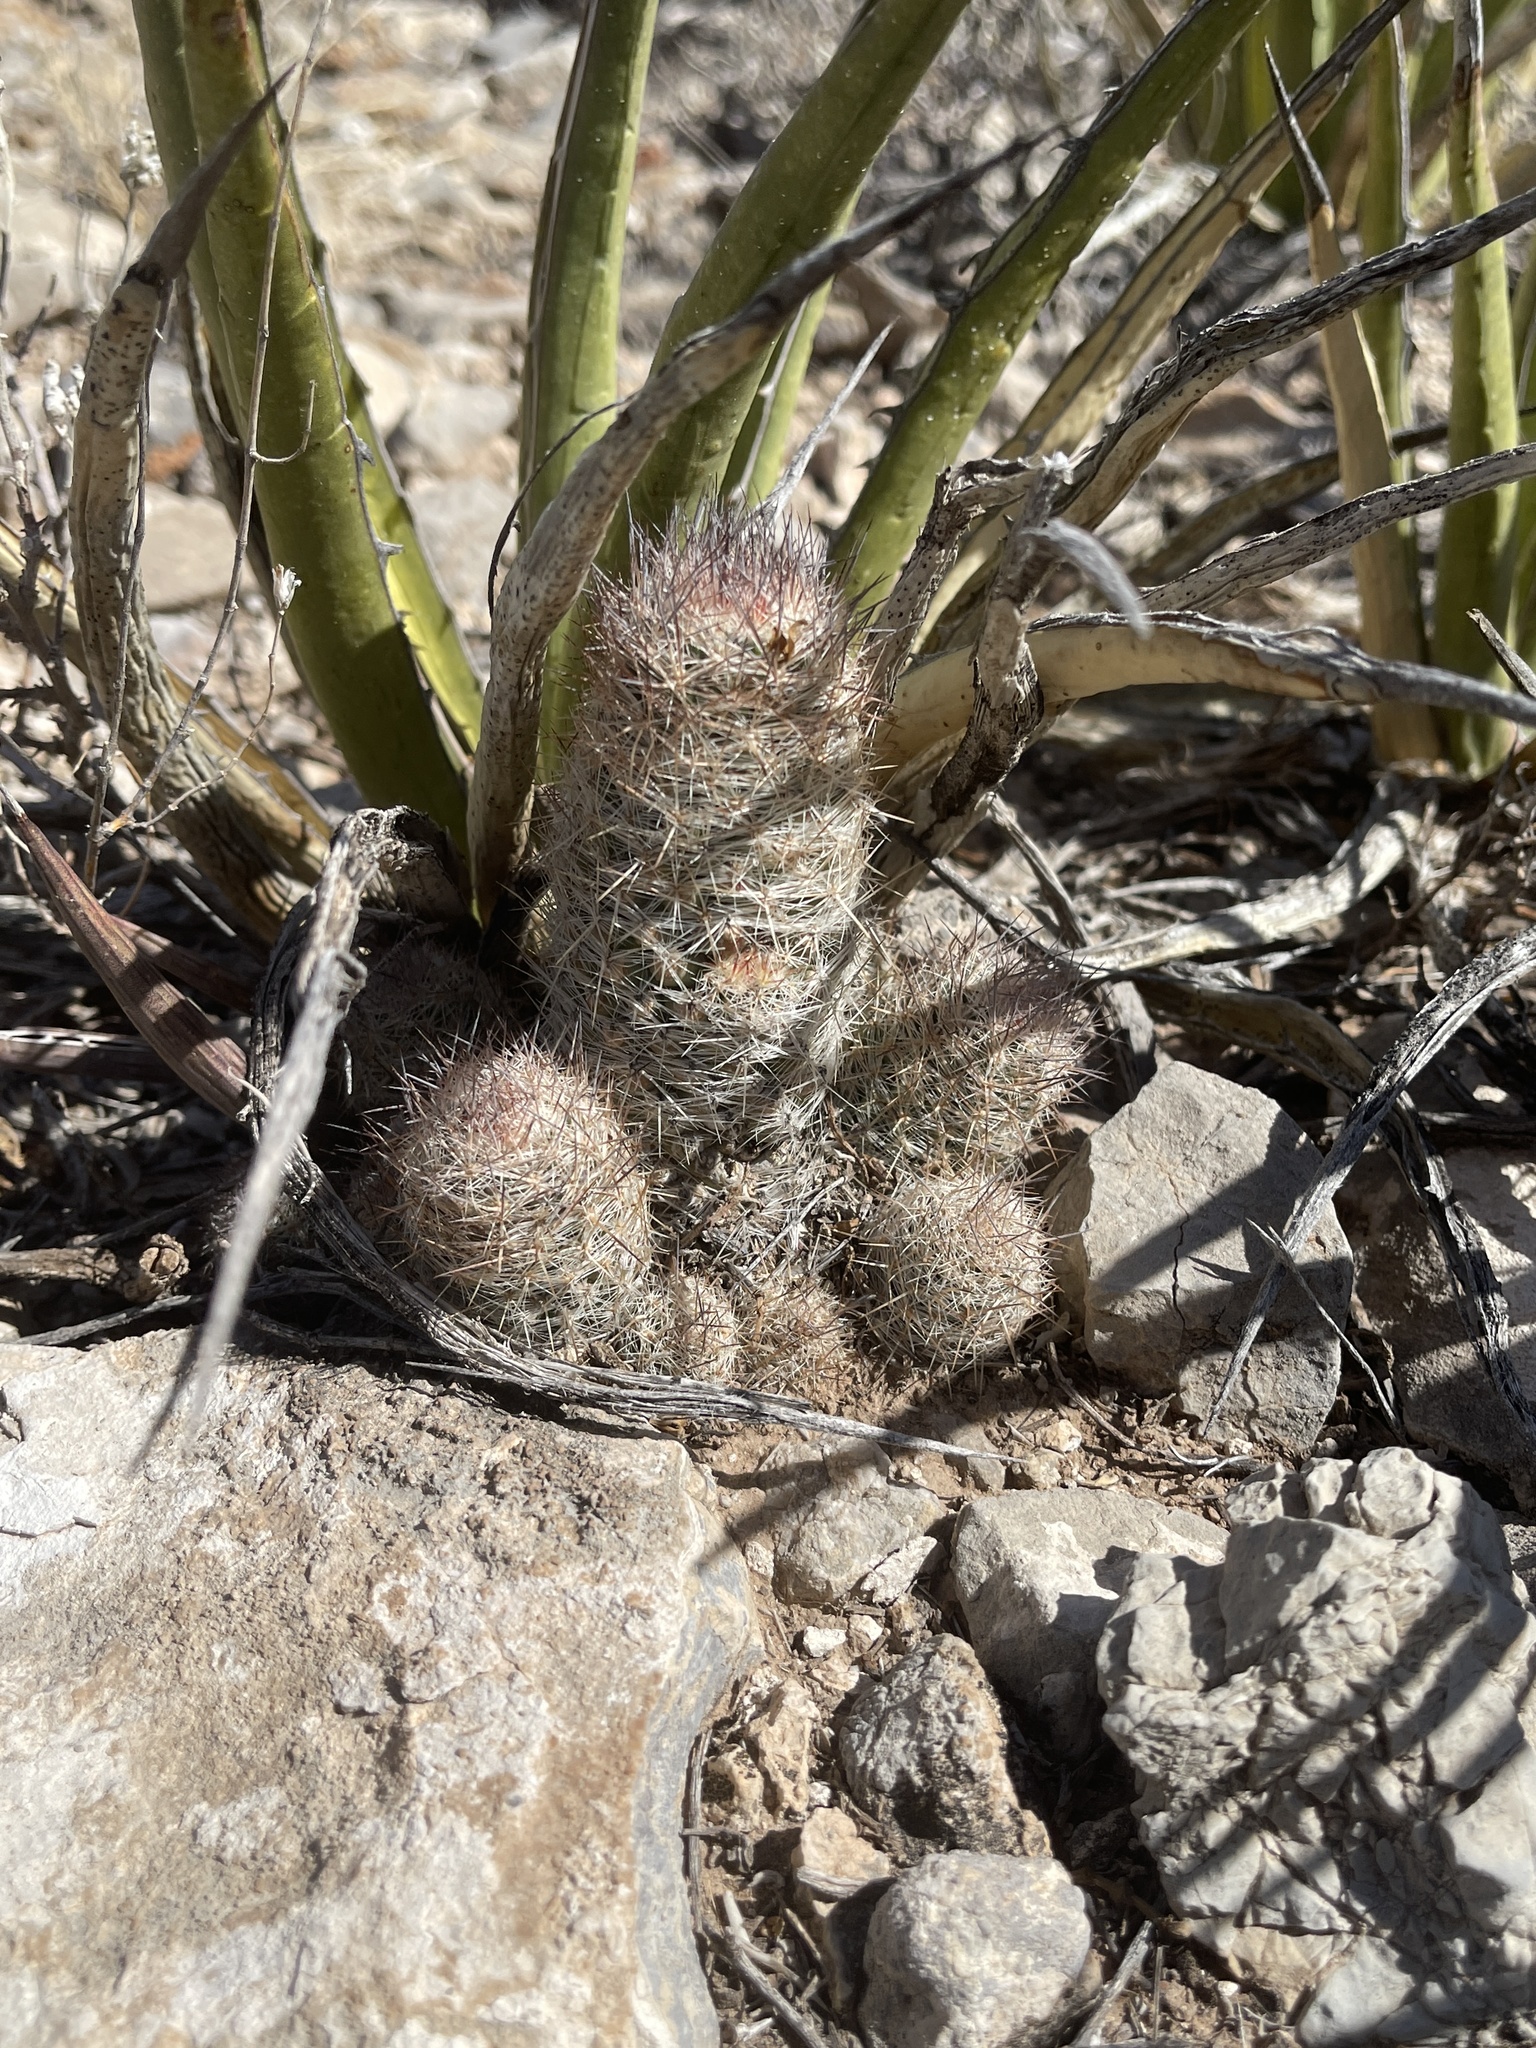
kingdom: Plantae
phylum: Tracheophyta
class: Magnoliopsida
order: Caryophyllales
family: Cactaceae
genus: Pelecyphora
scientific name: Pelecyphora tuberculosa
